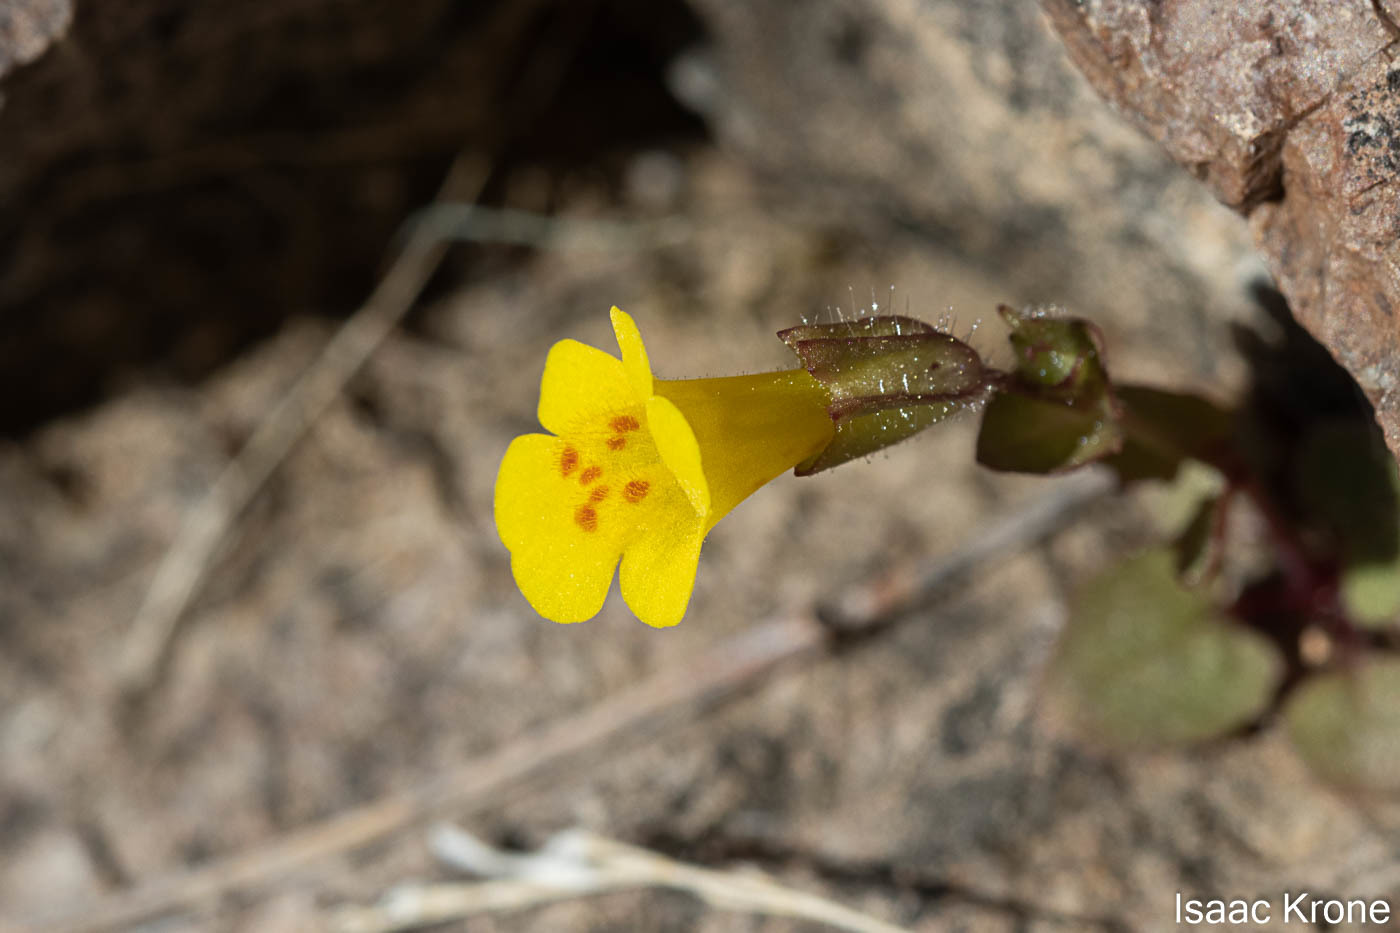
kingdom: Plantae
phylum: Tracheophyta
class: Magnoliopsida
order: Lamiales
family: Phrymaceae
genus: Erythranthe
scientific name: Erythranthe cordata
